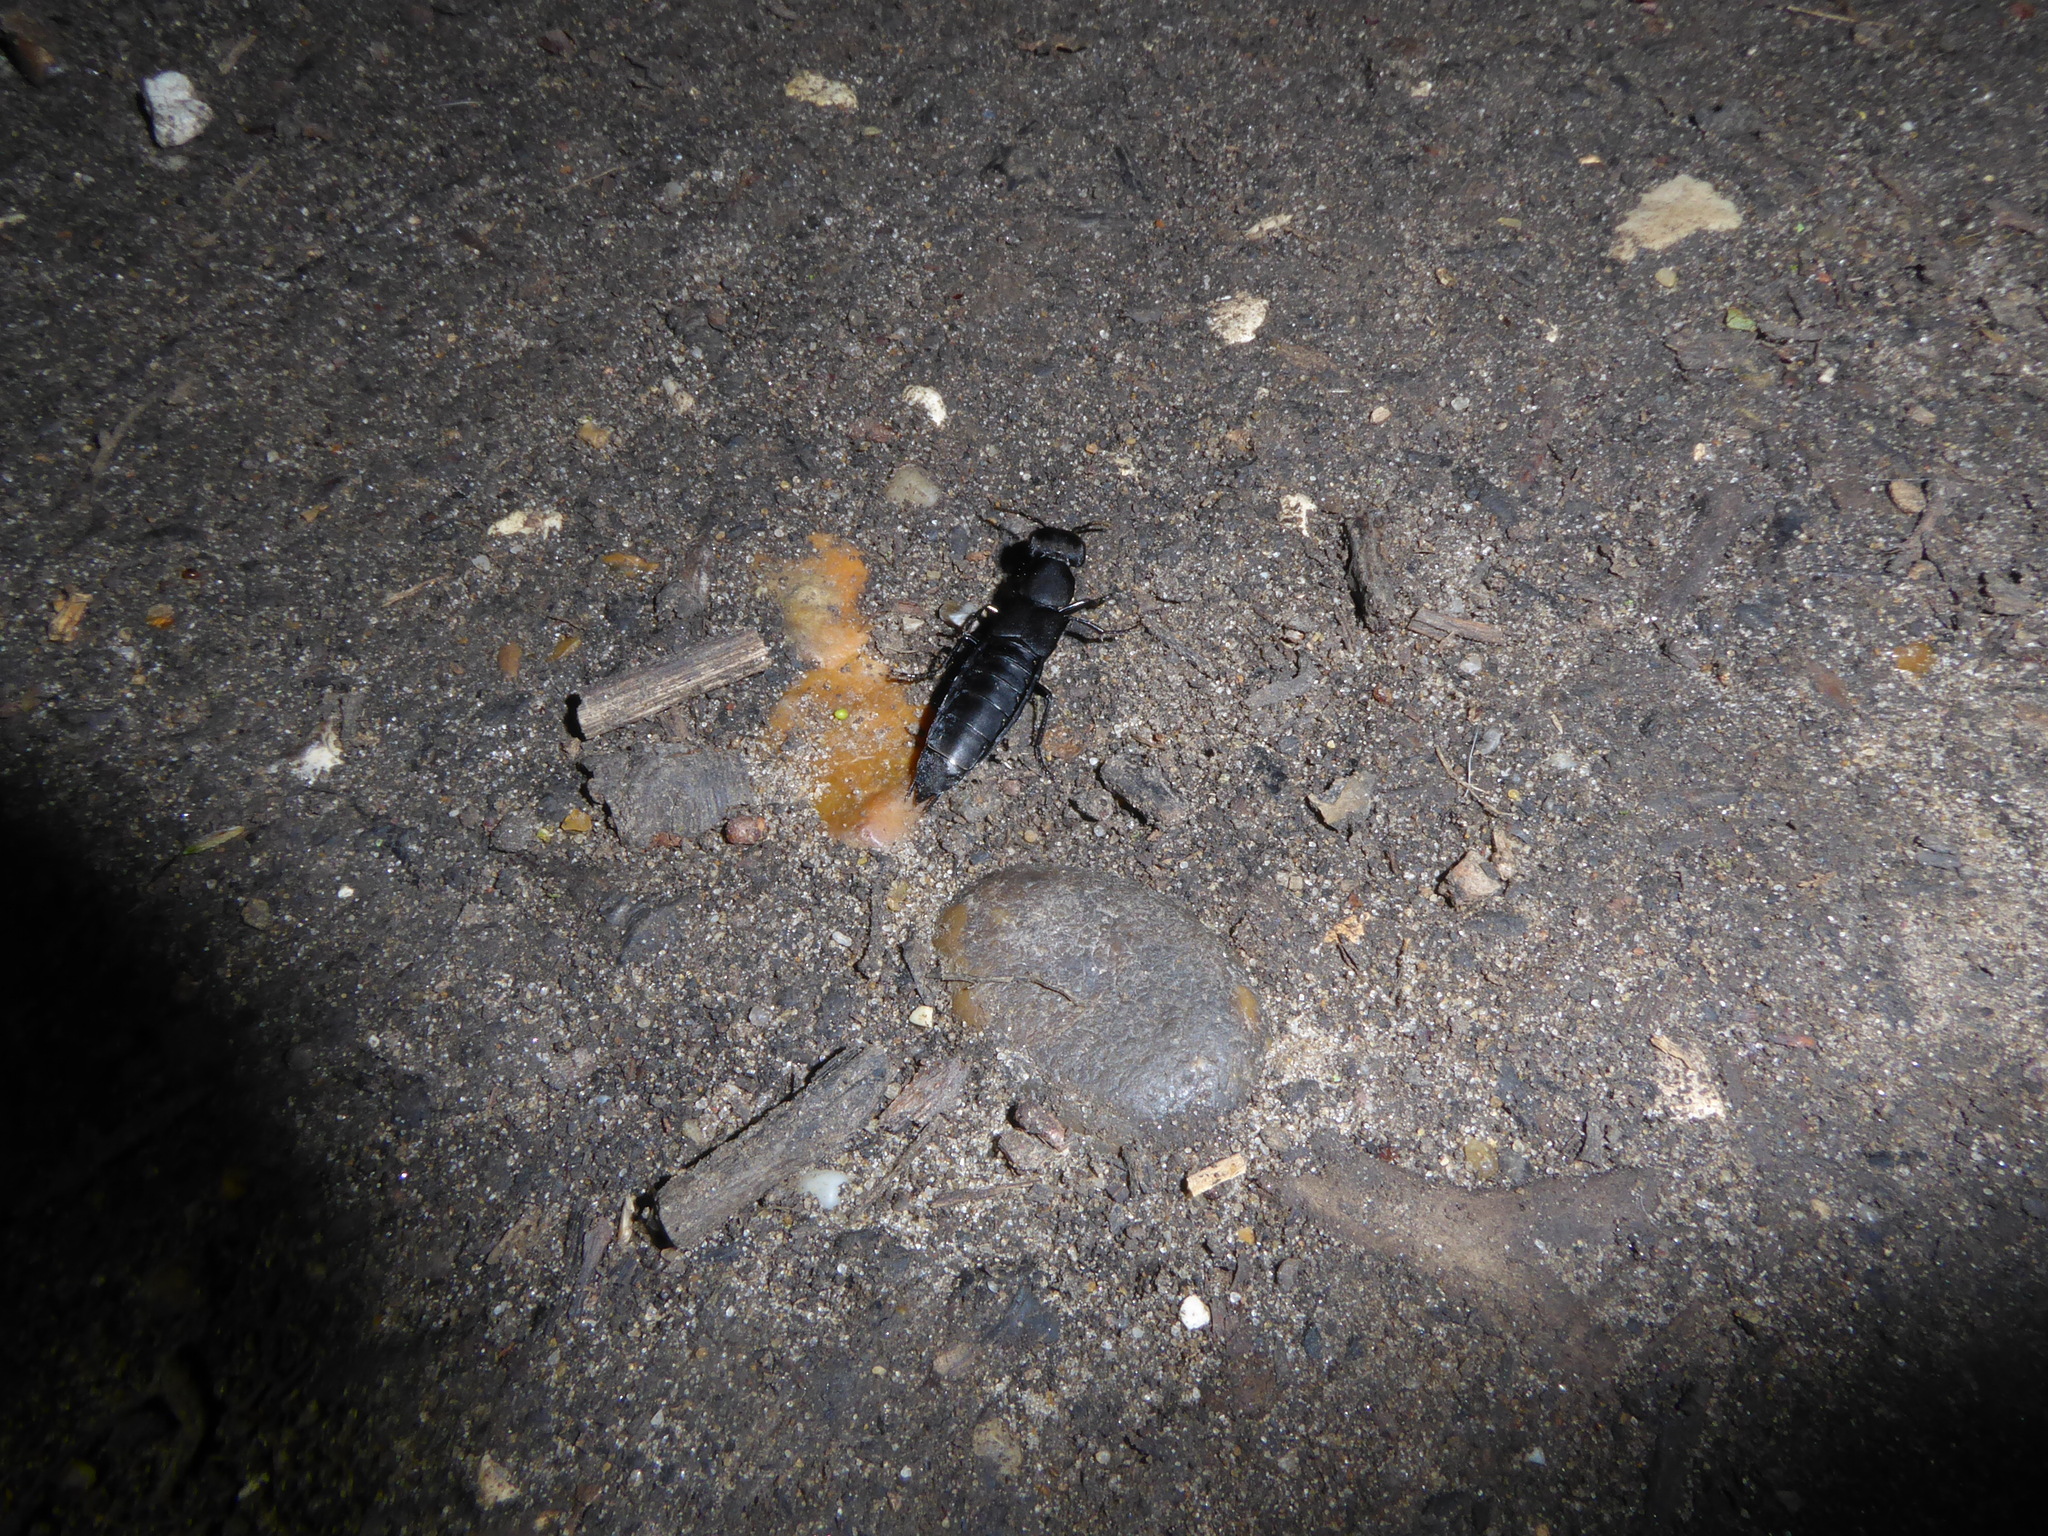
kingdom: Animalia
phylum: Arthropoda
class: Insecta
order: Coleoptera
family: Staphylinidae
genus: Ocypus
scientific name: Ocypus olens
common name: Devil's coach-horse
